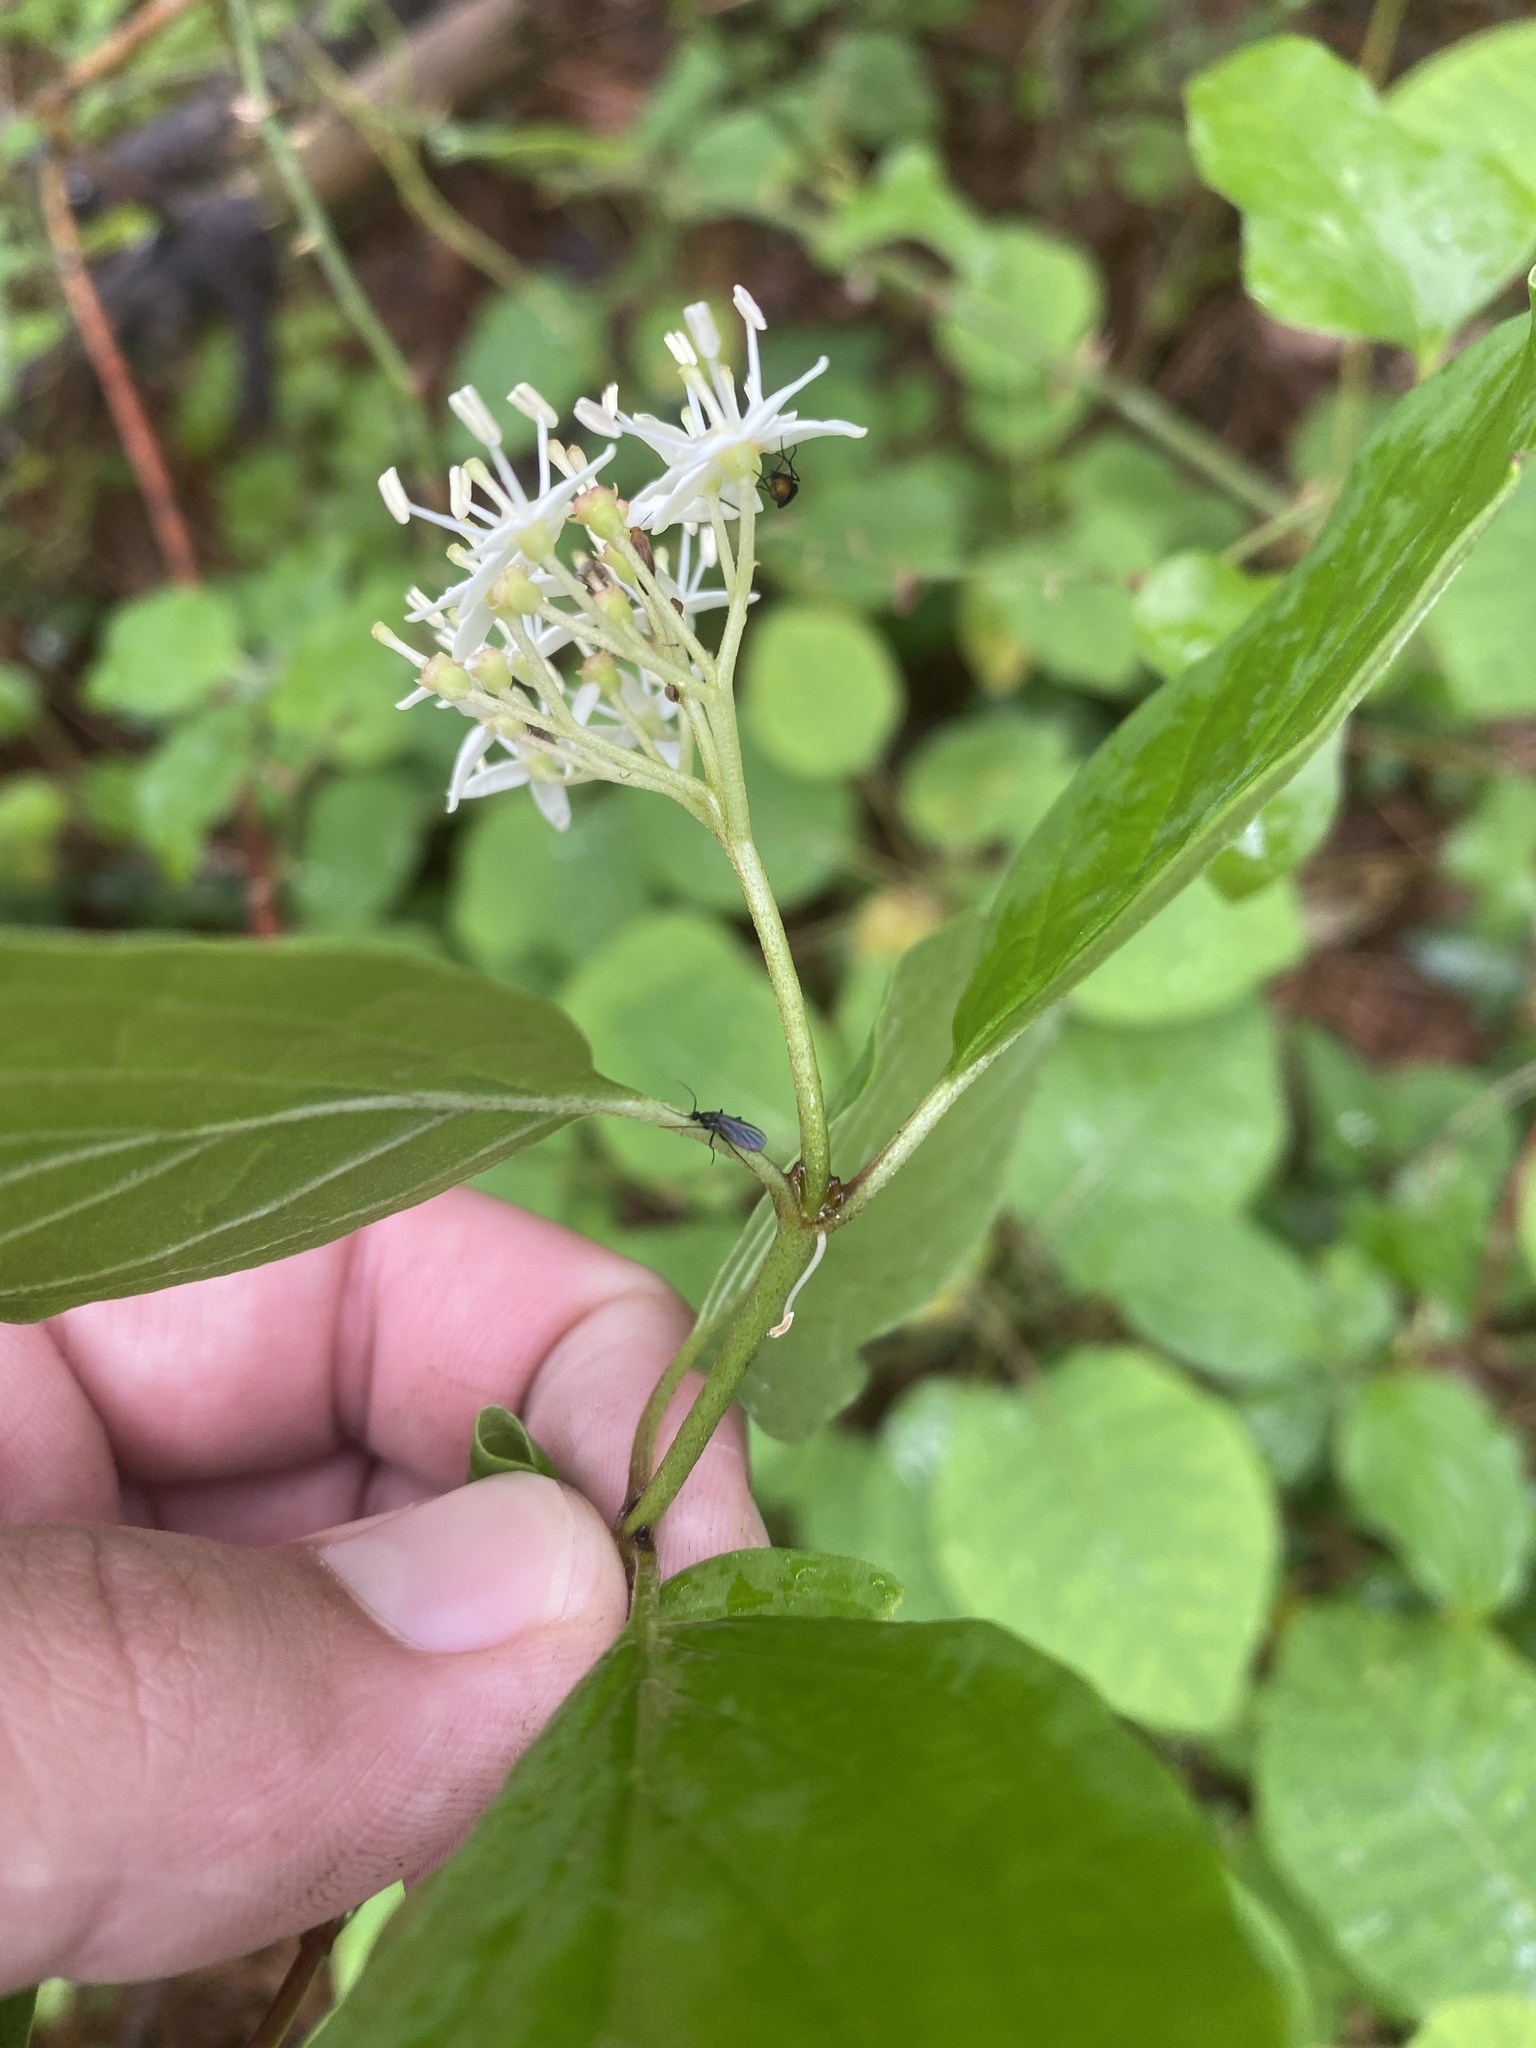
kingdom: Plantae
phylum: Tracheophyta
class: Magnoliopsida
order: Cornales
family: Cornaceae
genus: Cornus
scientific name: Cornus sanguinea
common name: Dogwood
